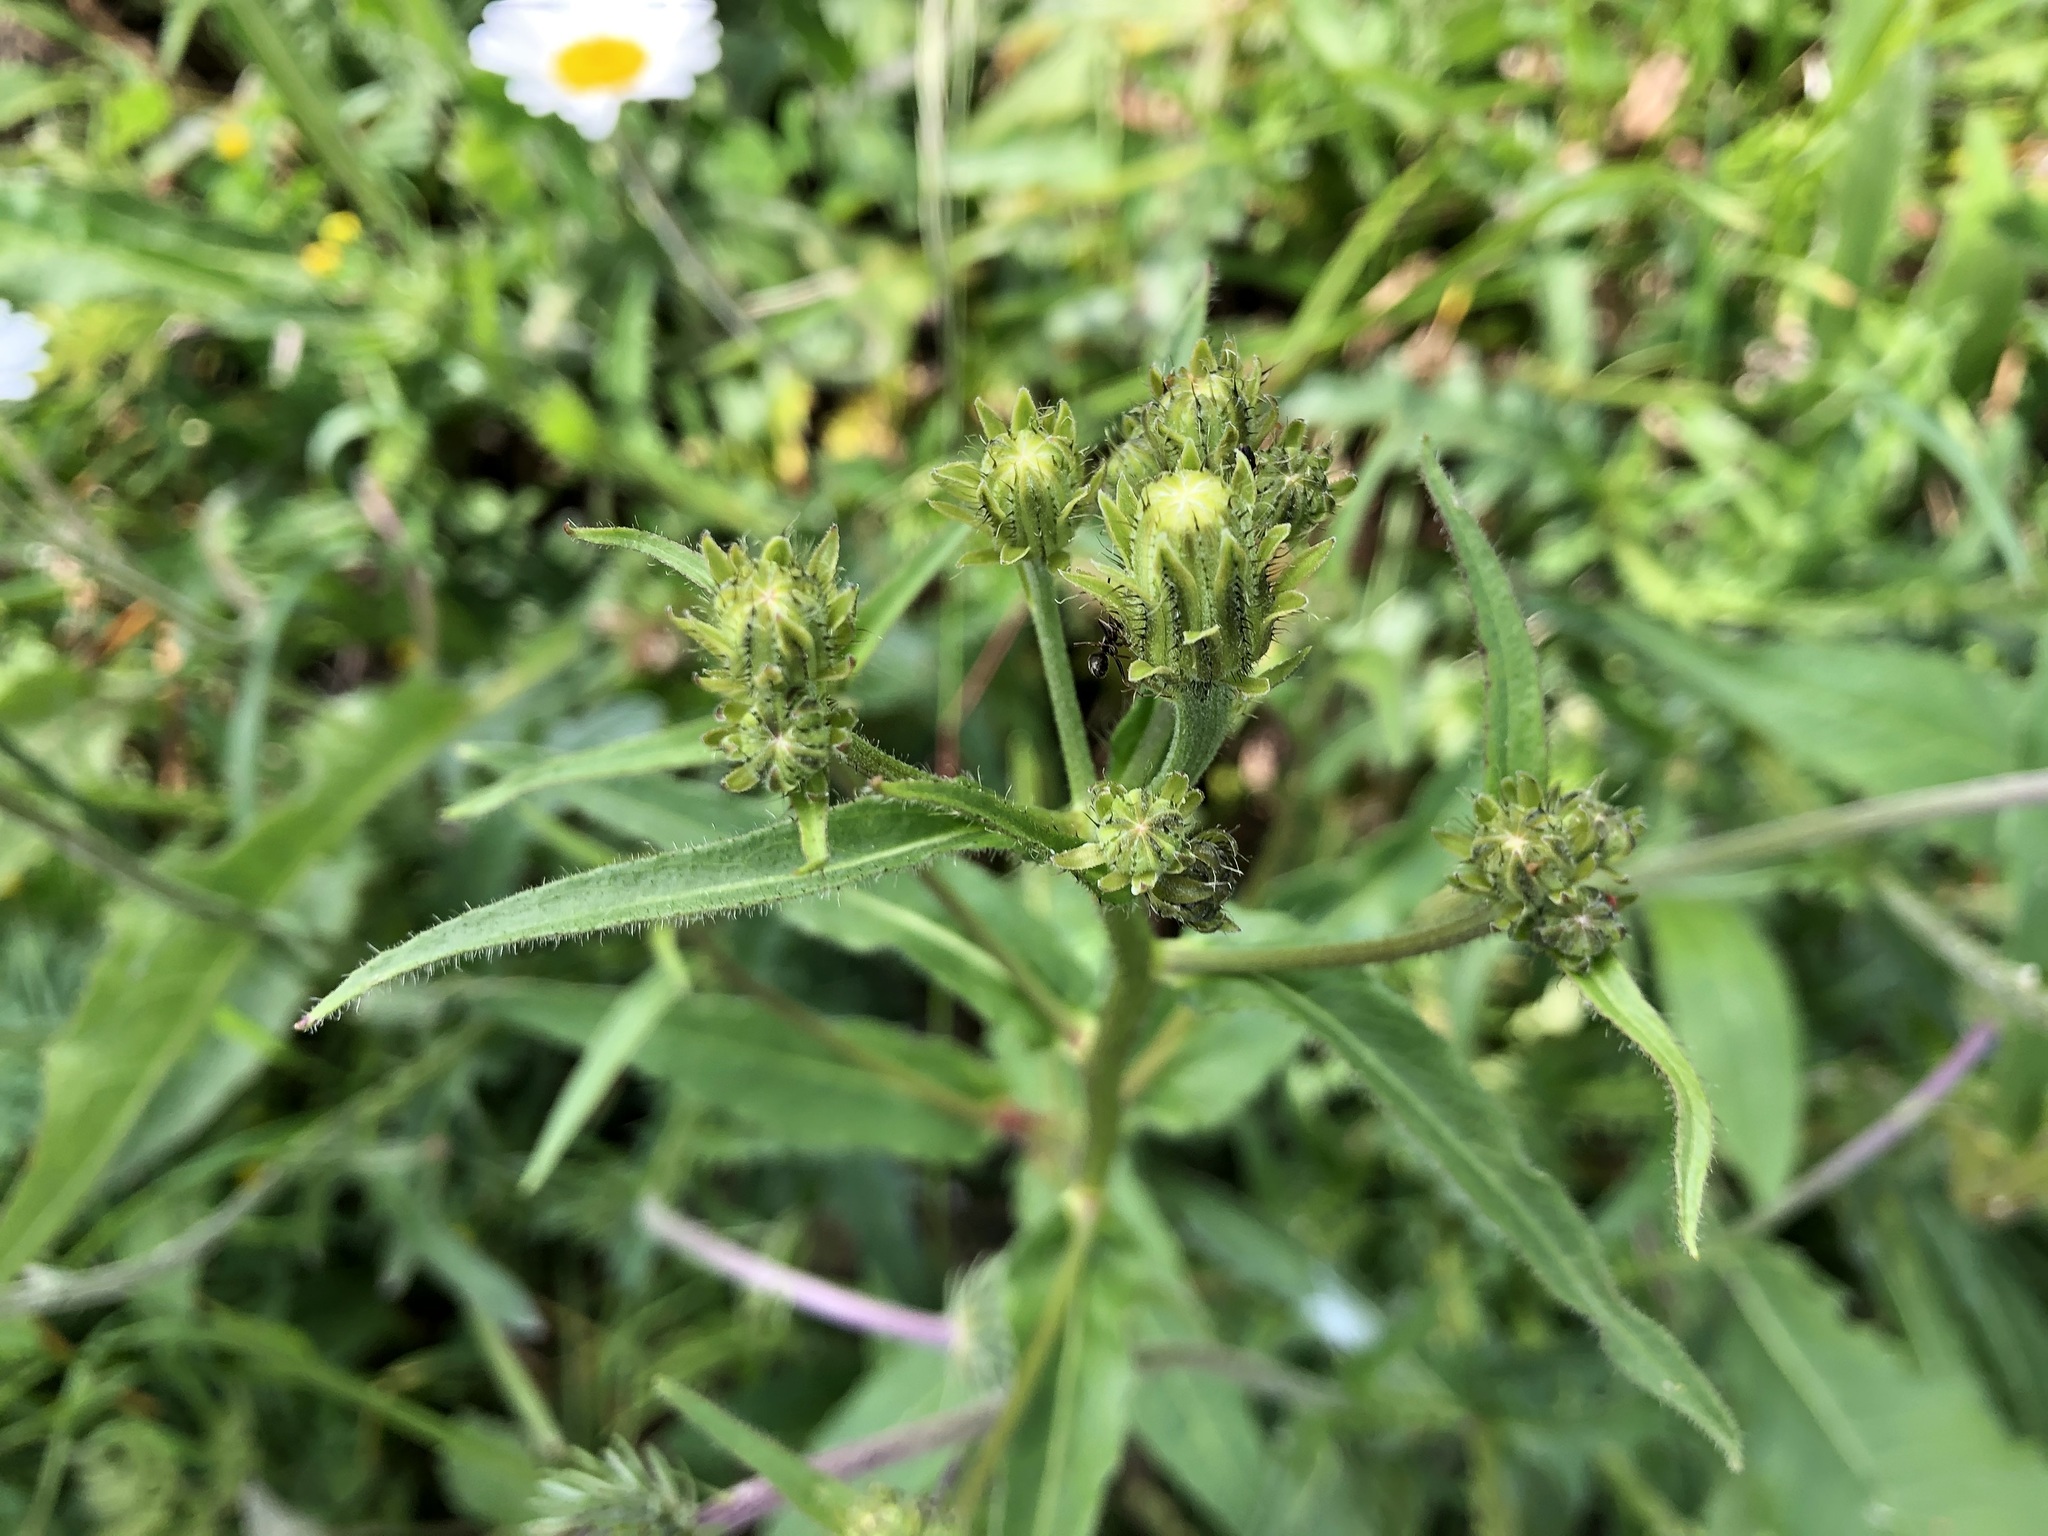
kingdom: Plantae
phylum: Tracheophyta
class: Magnoliopsida
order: Asterales
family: Asteraceae
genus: Picris
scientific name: Picris hieracioides
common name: Hawkweed oxtongue
